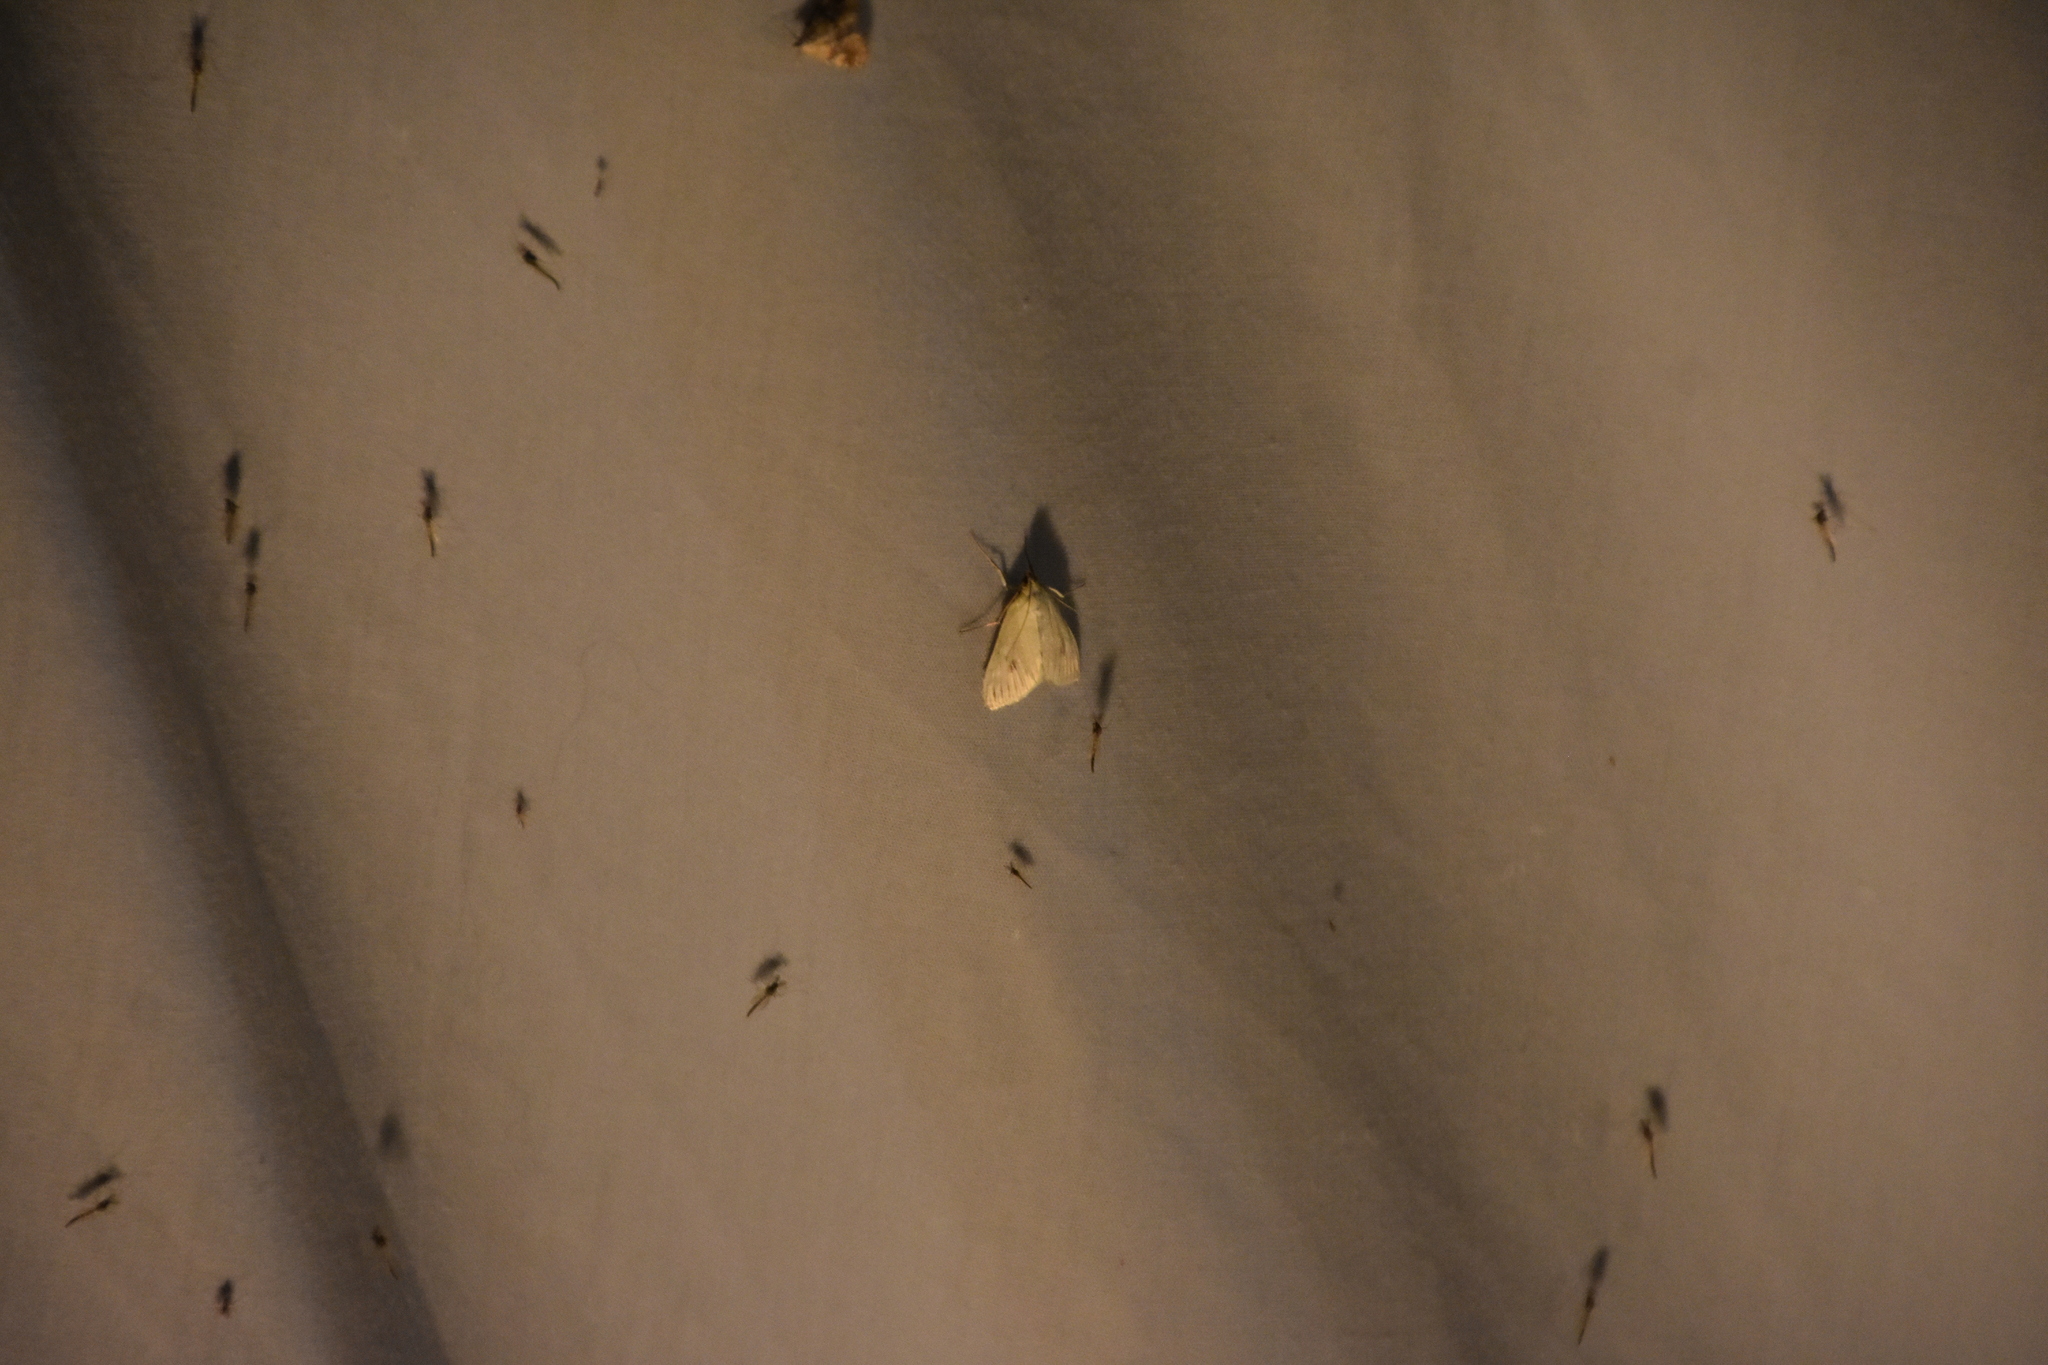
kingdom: Animalia
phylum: Arthropoda
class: Insecta
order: Lepidoptera
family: Crambidae
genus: Sitochroa
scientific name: Sitochroa palealis
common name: Greenish-yellow sitochroa moth
